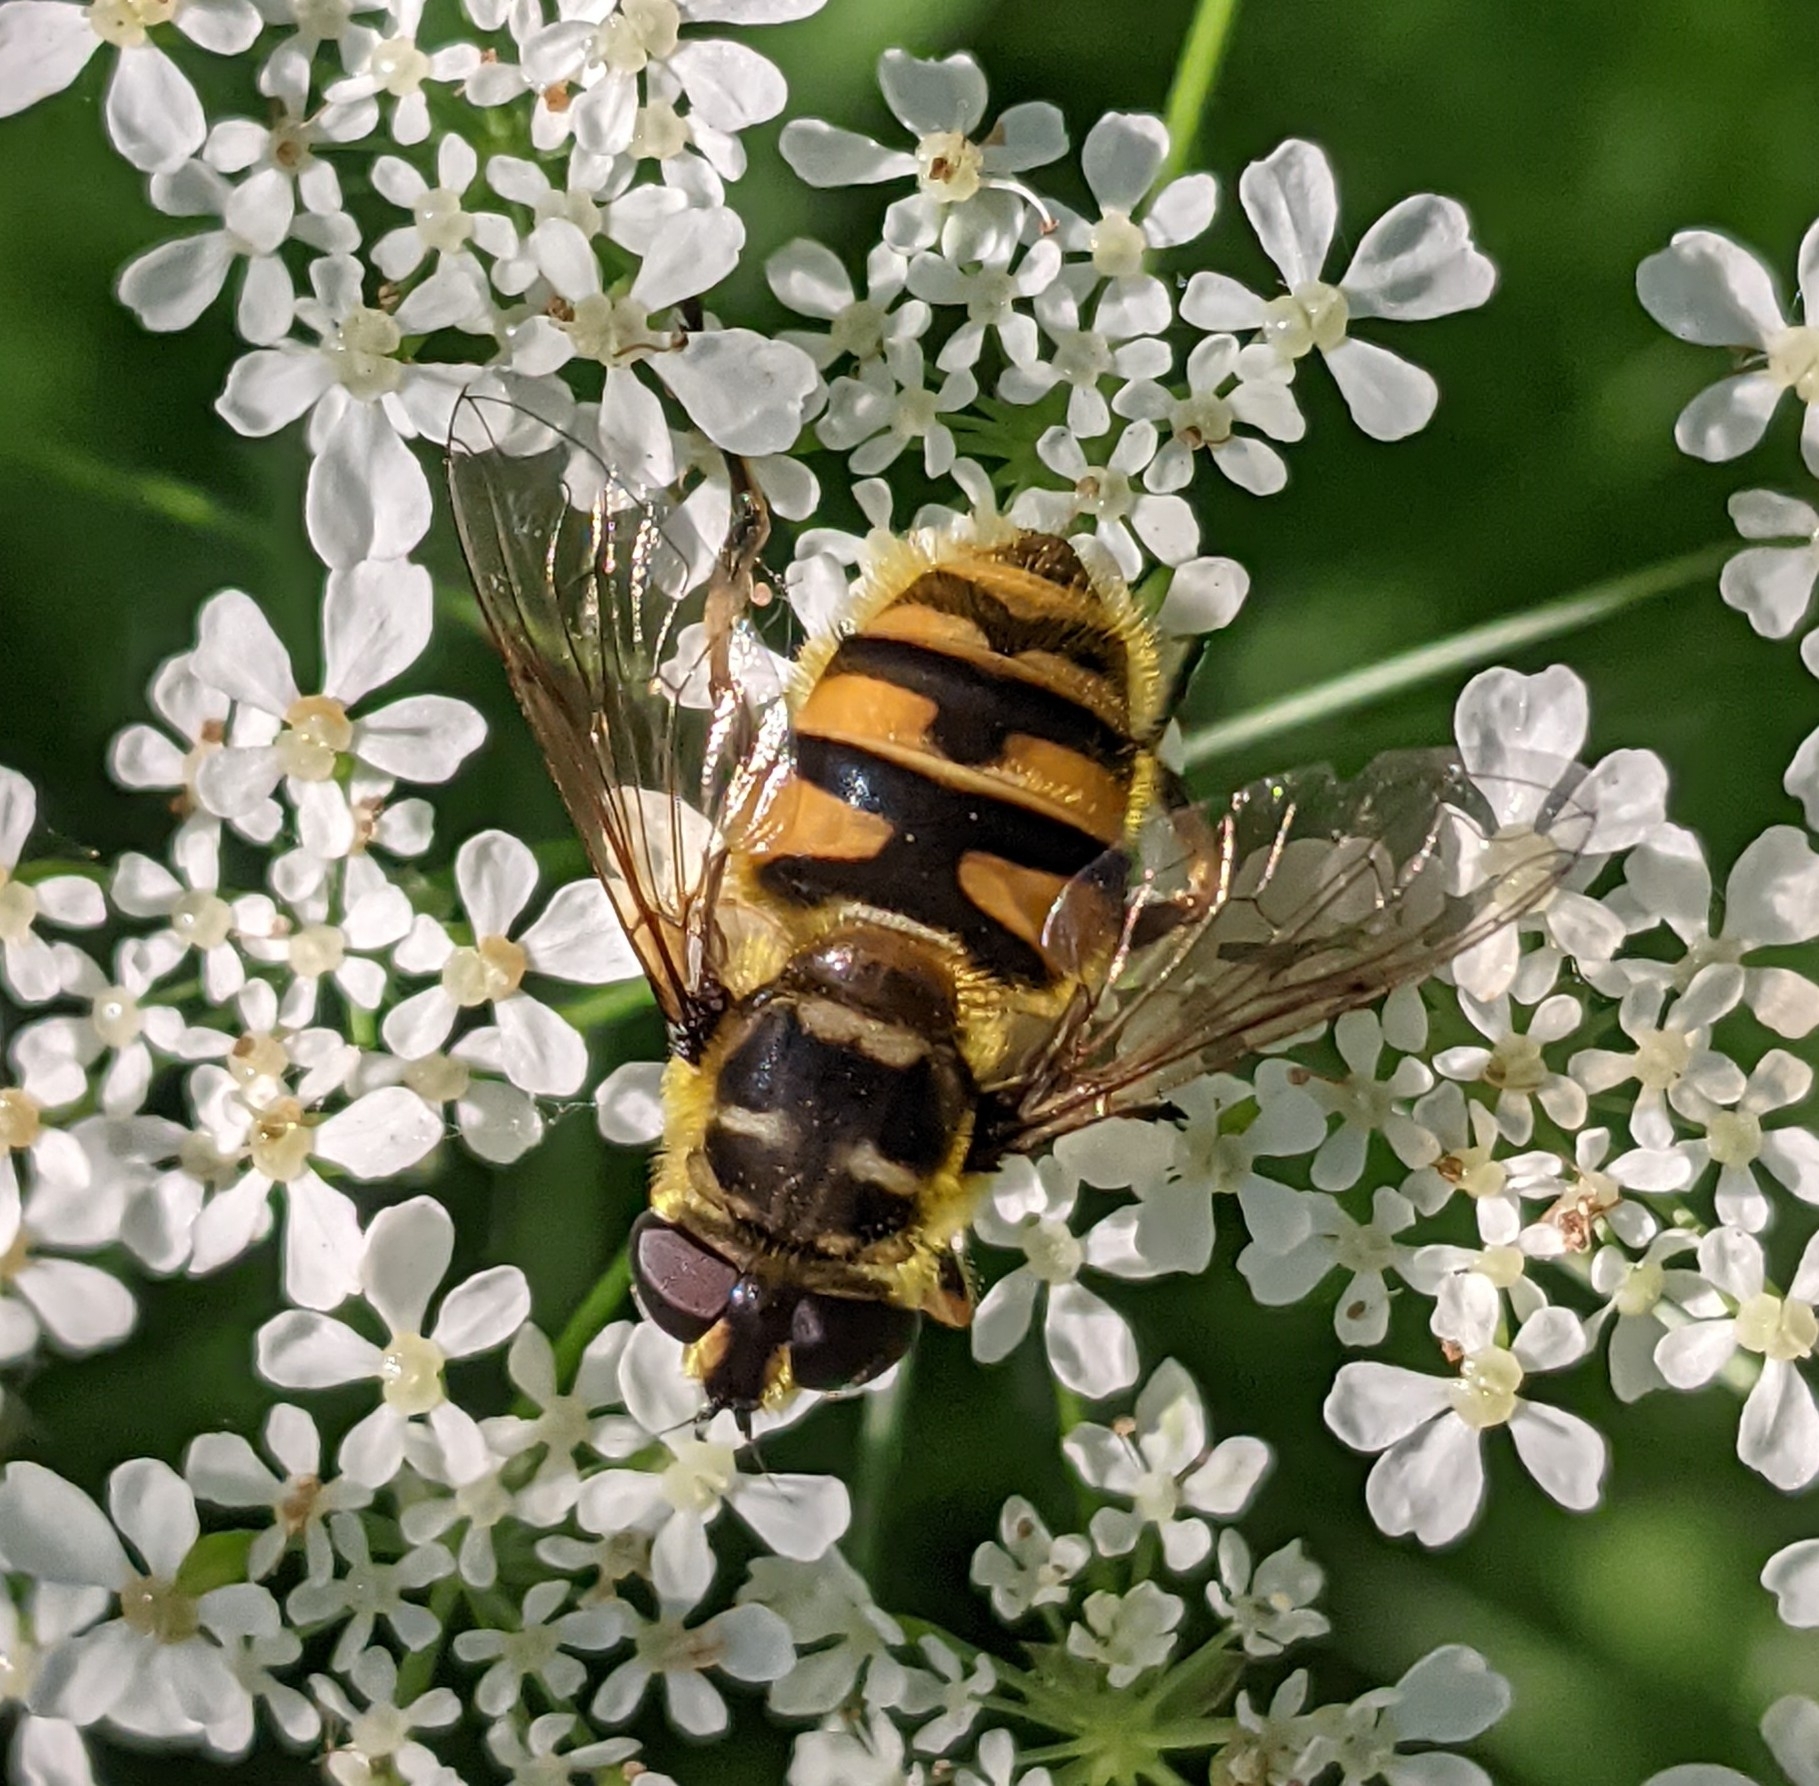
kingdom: Animalia
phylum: Arthropoda
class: Insecta
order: Diptera
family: Syrphidae
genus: Myathropa
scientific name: Myathropa florea
